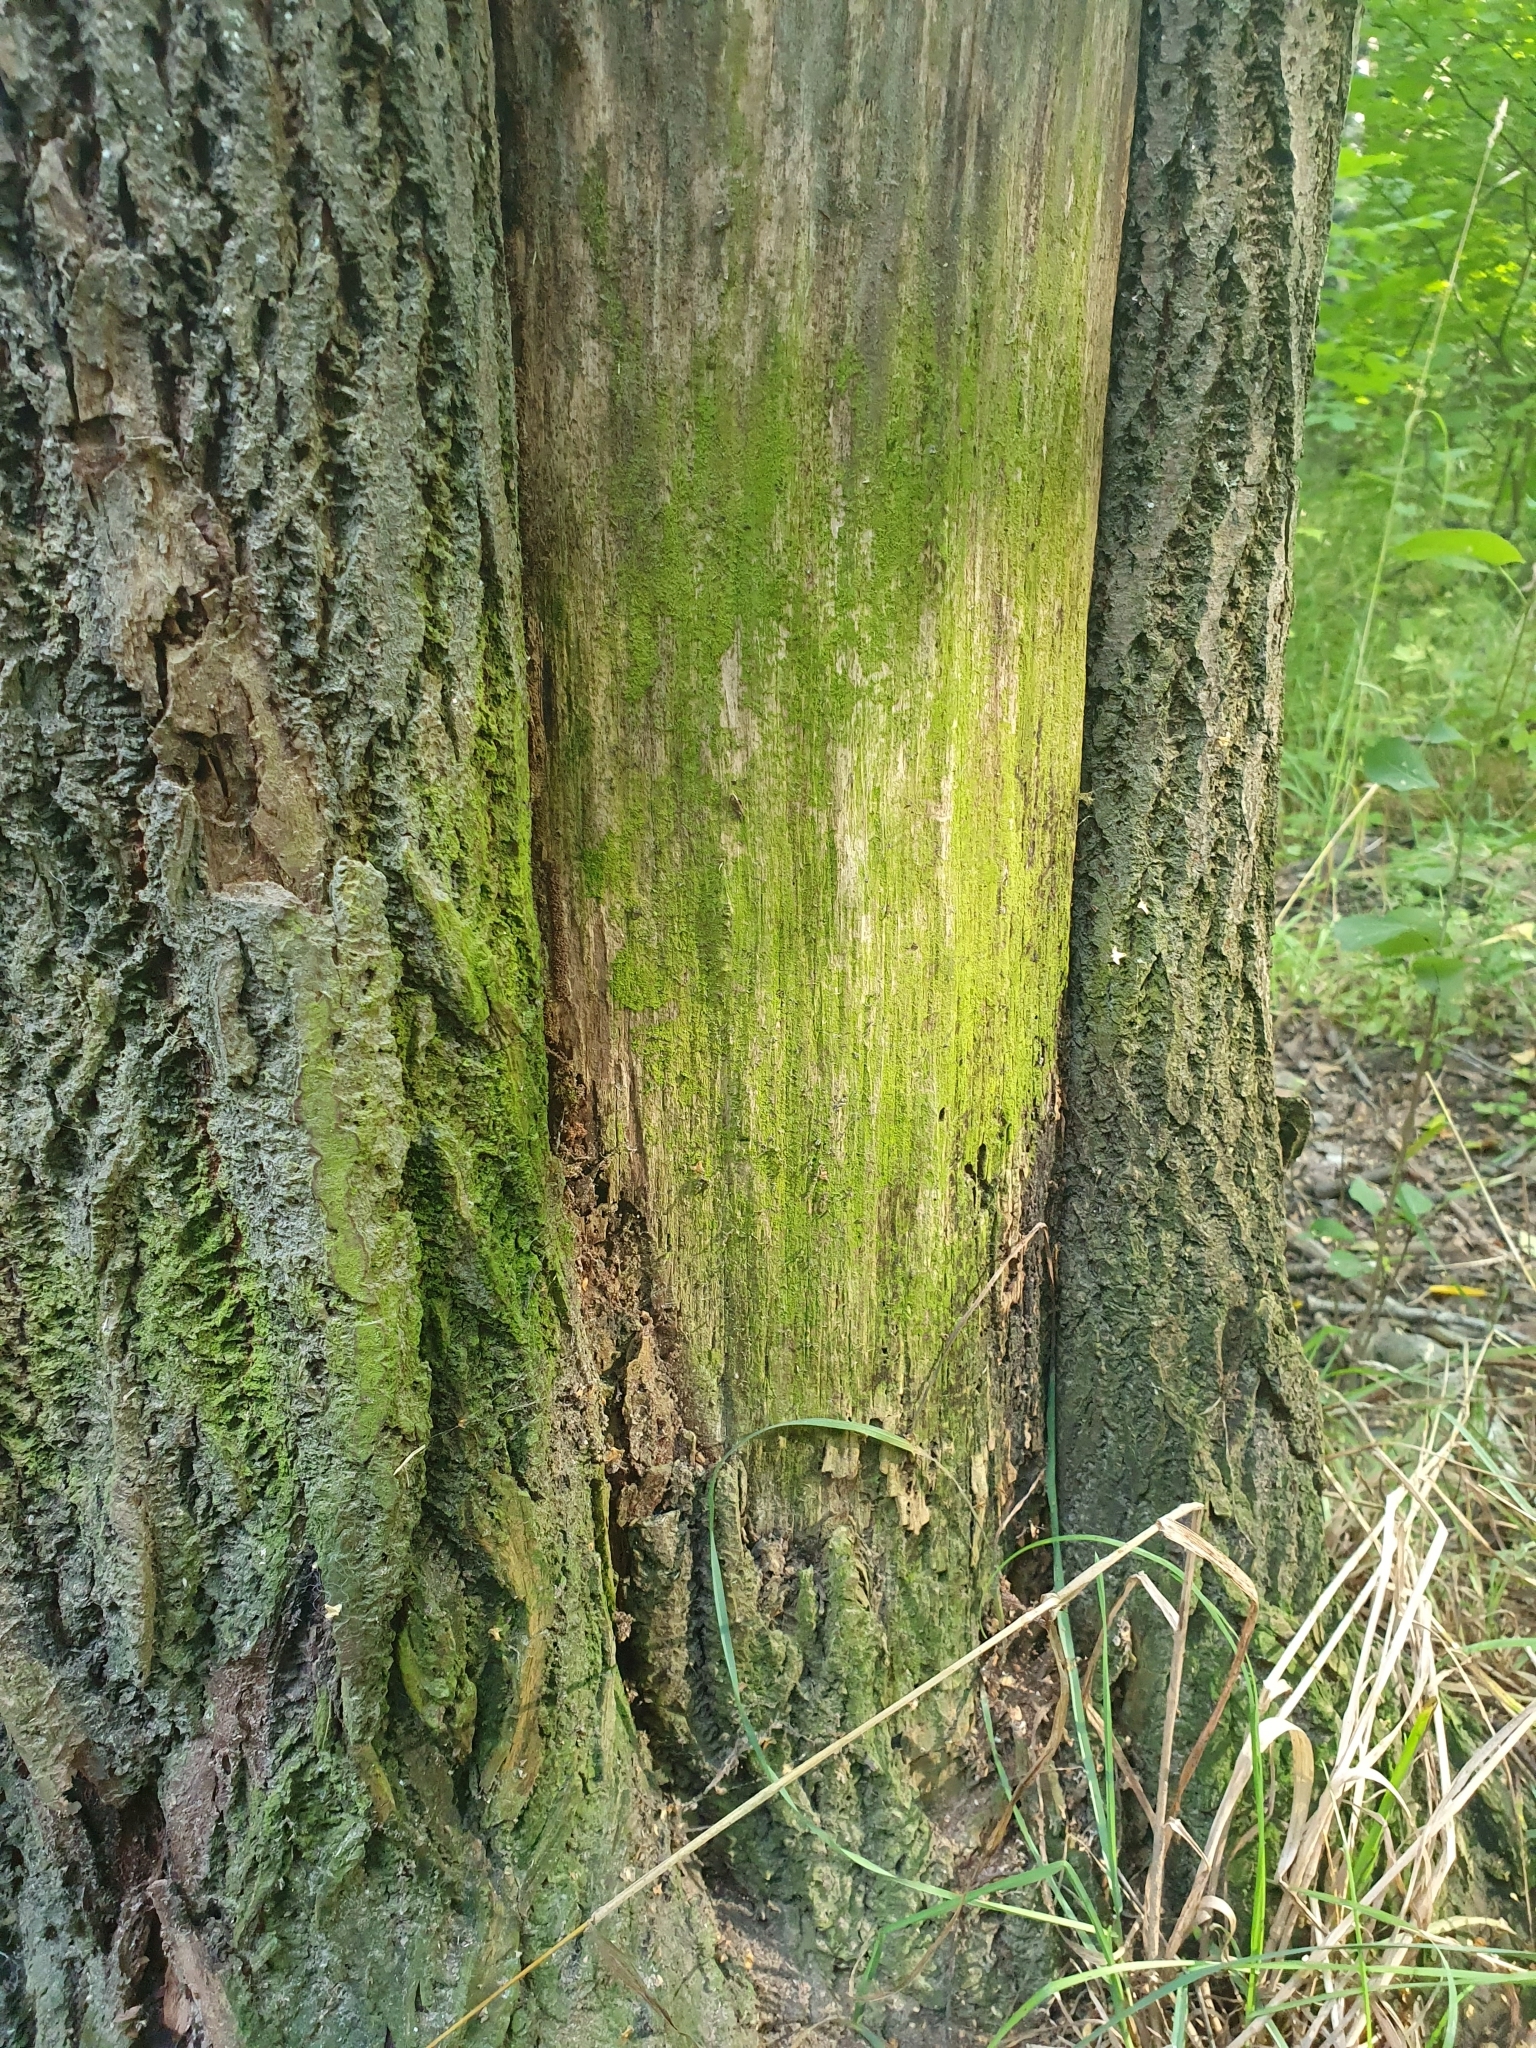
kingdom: Plantae
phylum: Chlorophyta
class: Trebouxiophyceae
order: Prasiolales
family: Prasiolaceae
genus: Desmococcus
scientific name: Desmococcus olivaceus
